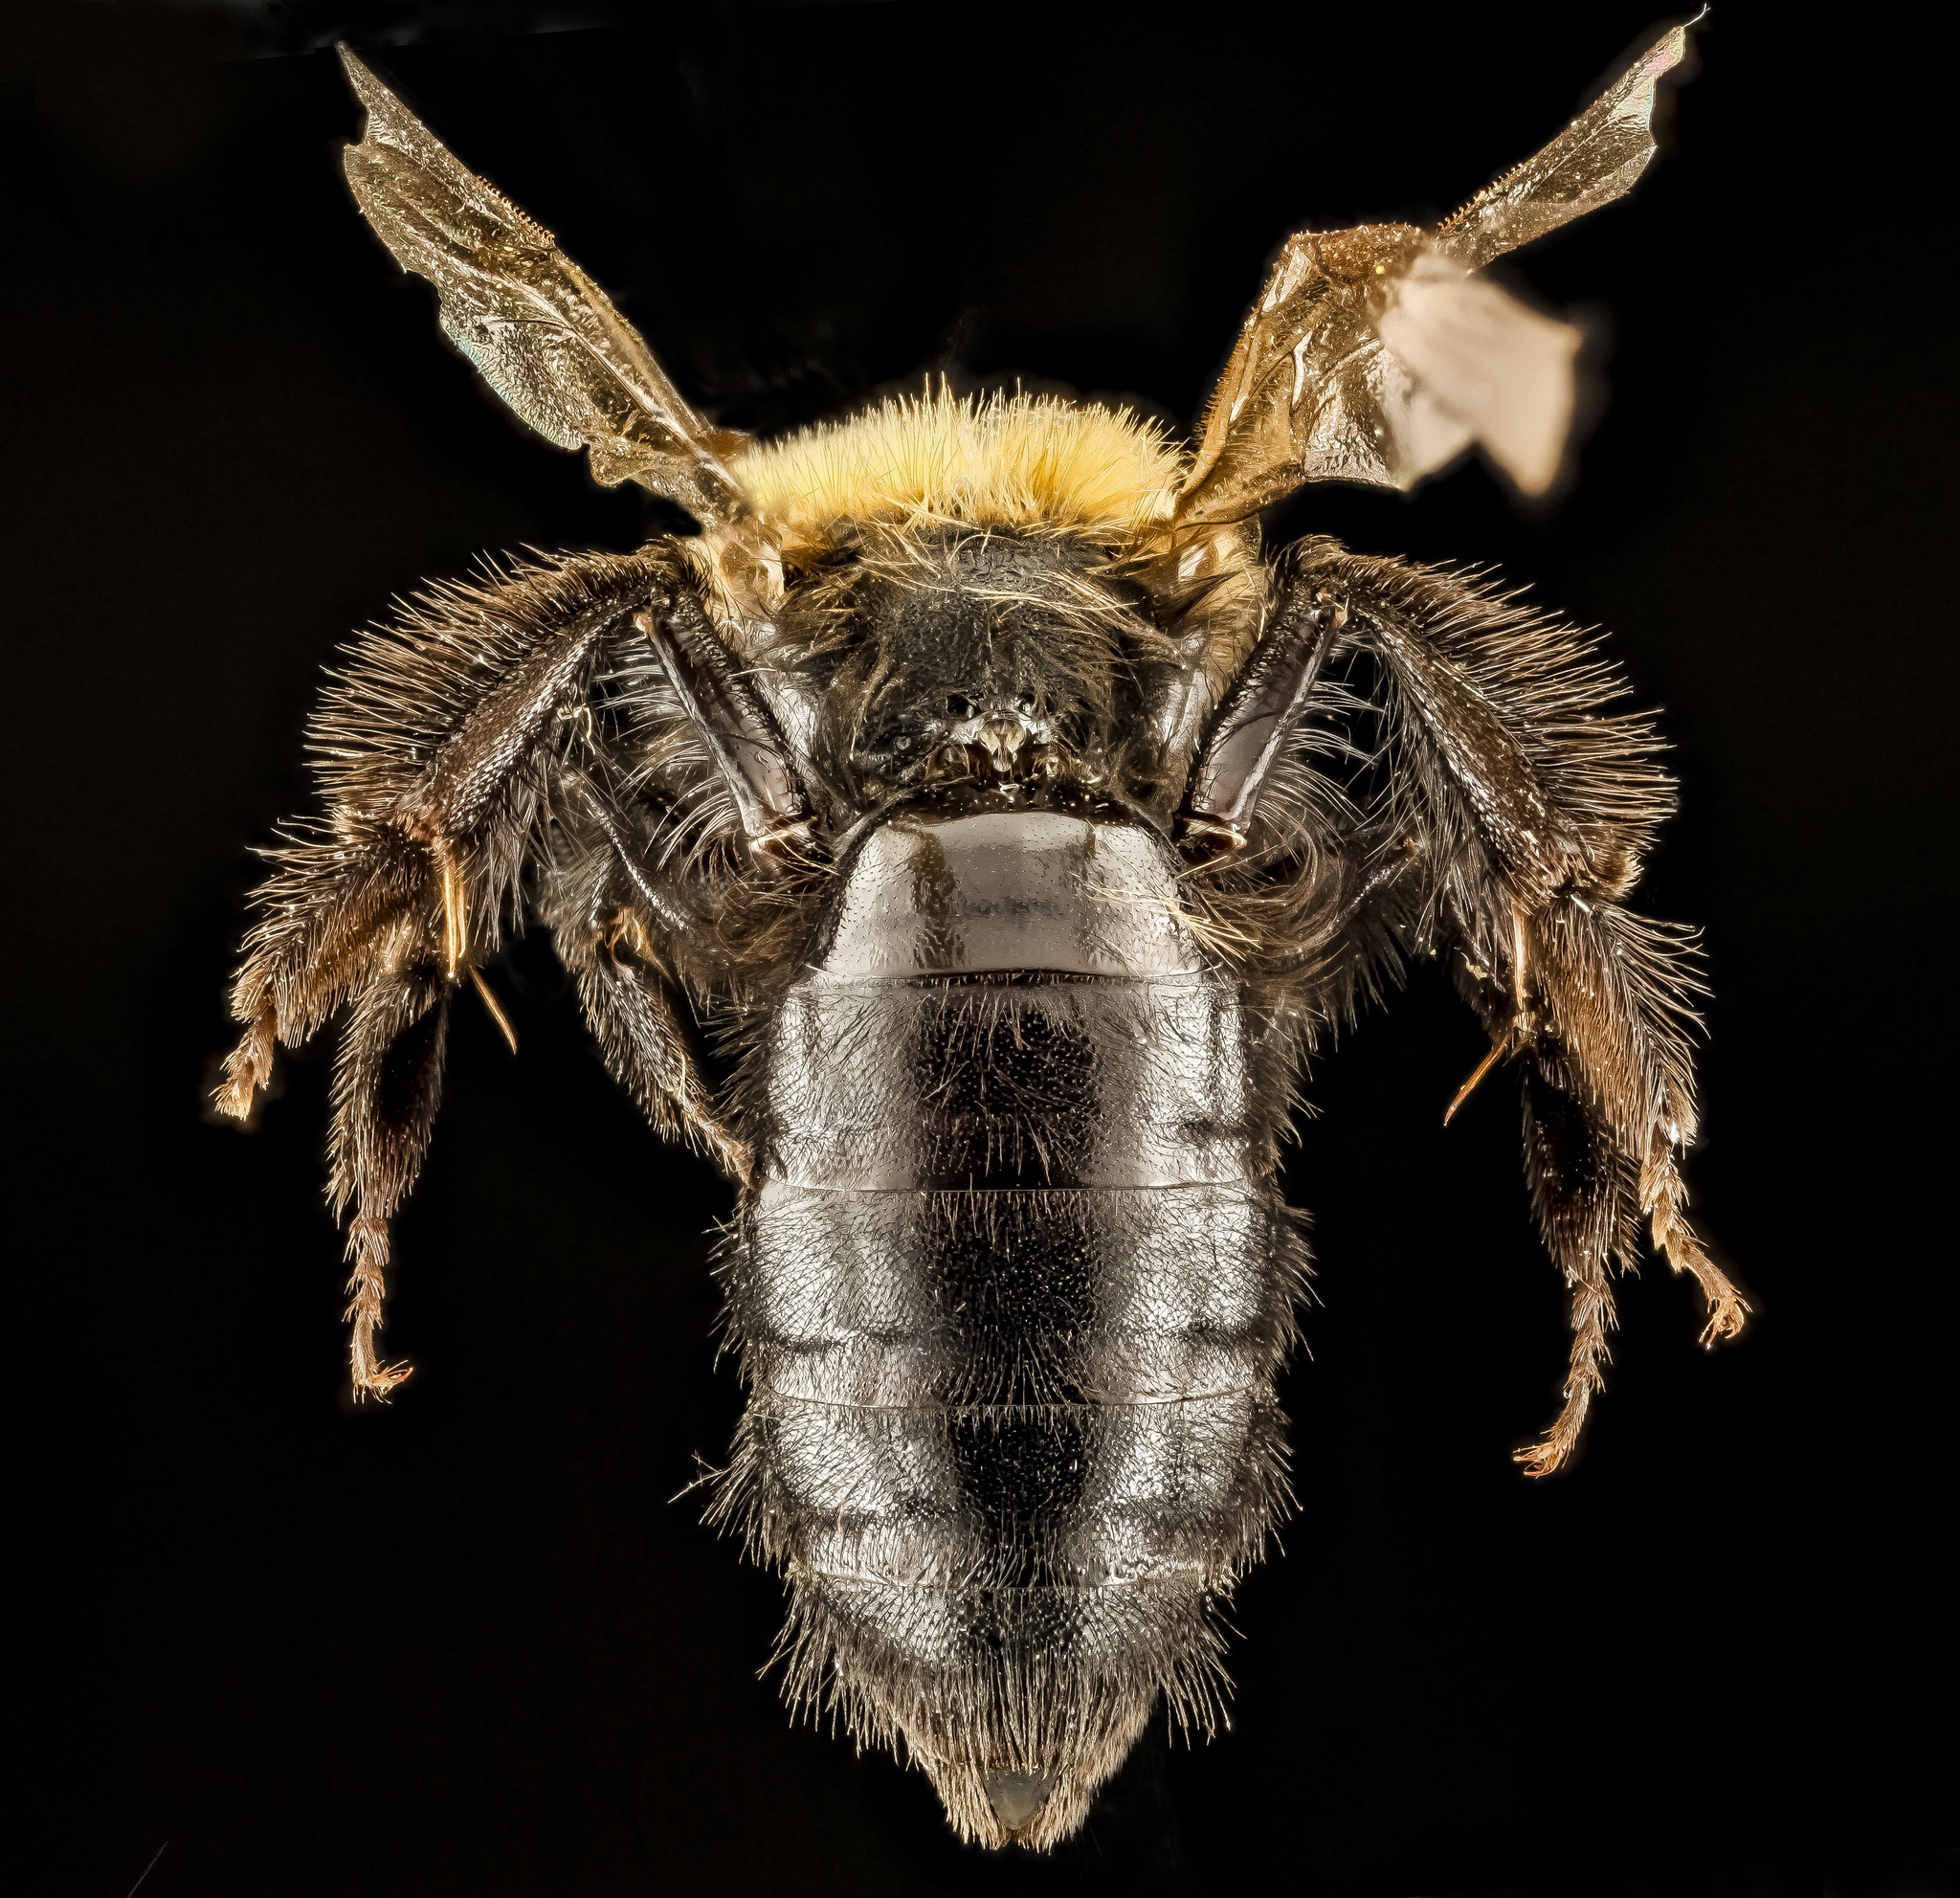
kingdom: Animalia
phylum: Arthropoda
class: Insecta
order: Hymenoptera
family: Andrenidae
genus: Andrena
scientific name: Andrena anograe
